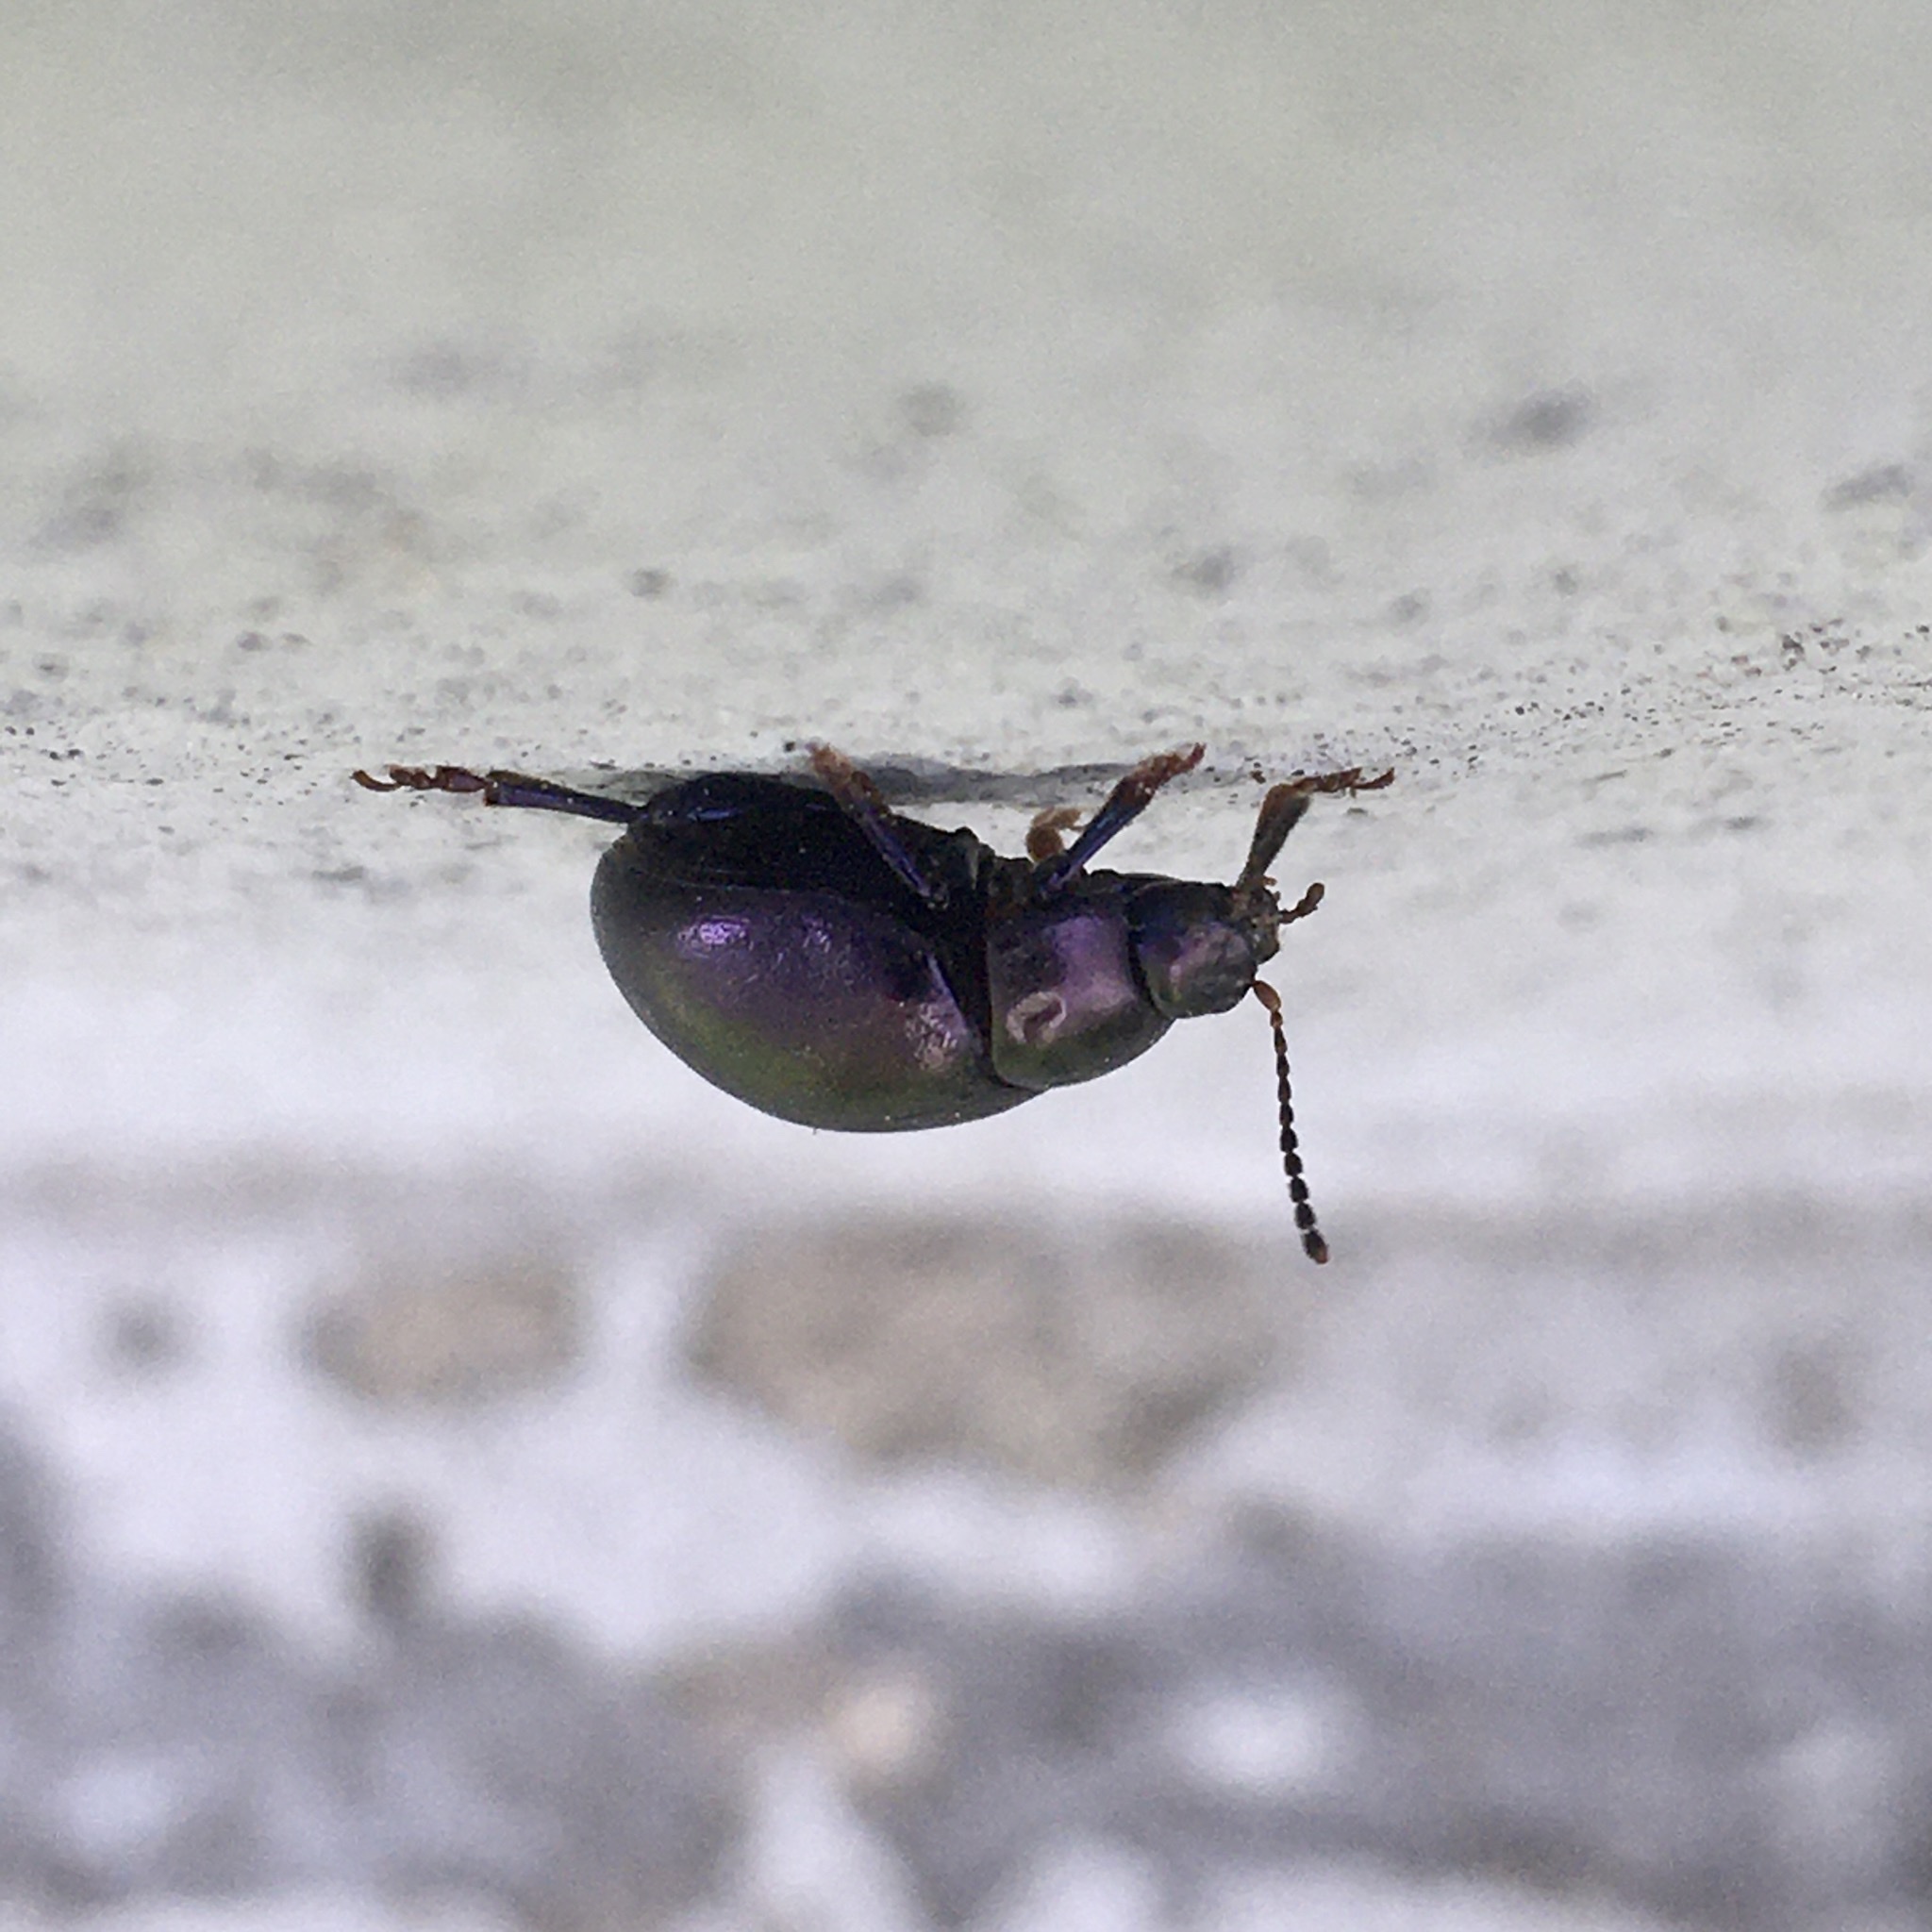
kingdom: Animalia
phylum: Arthropoda
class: Insecta
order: Coleoptera
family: Chrysomelidae
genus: Chrysolina
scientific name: Chrysolina sturmi
